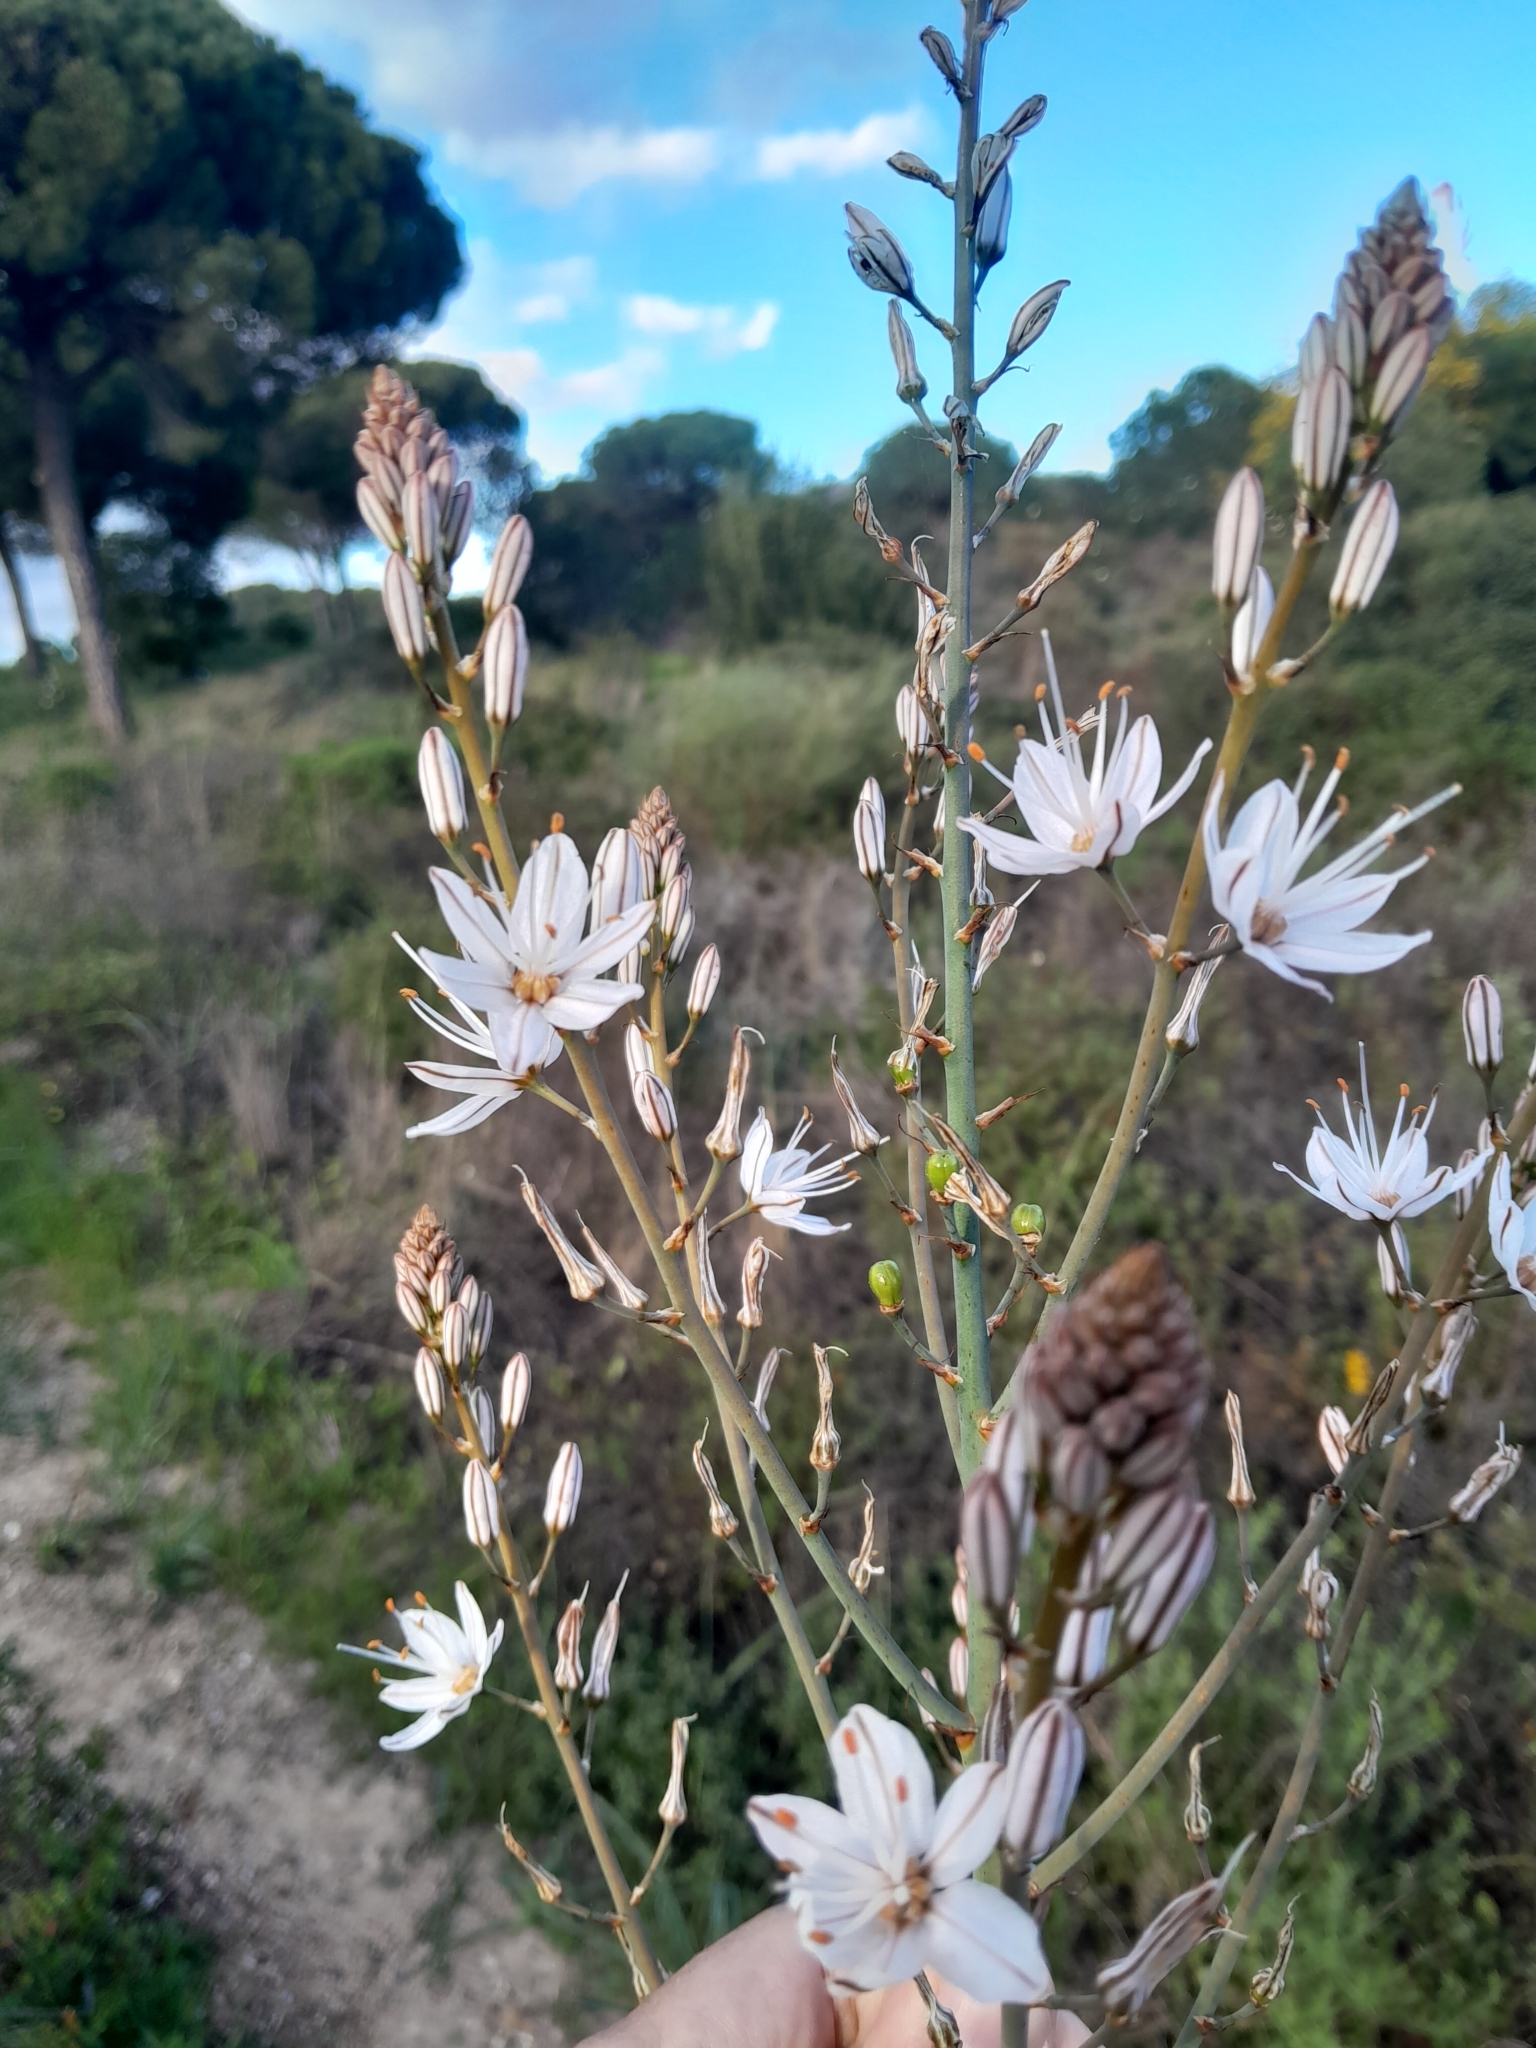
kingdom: Plantae
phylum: Tracheophyta
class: Liliopsida
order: Asparagales
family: Asphodelaceae
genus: Asphodelus
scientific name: Asphodelus serotinus
